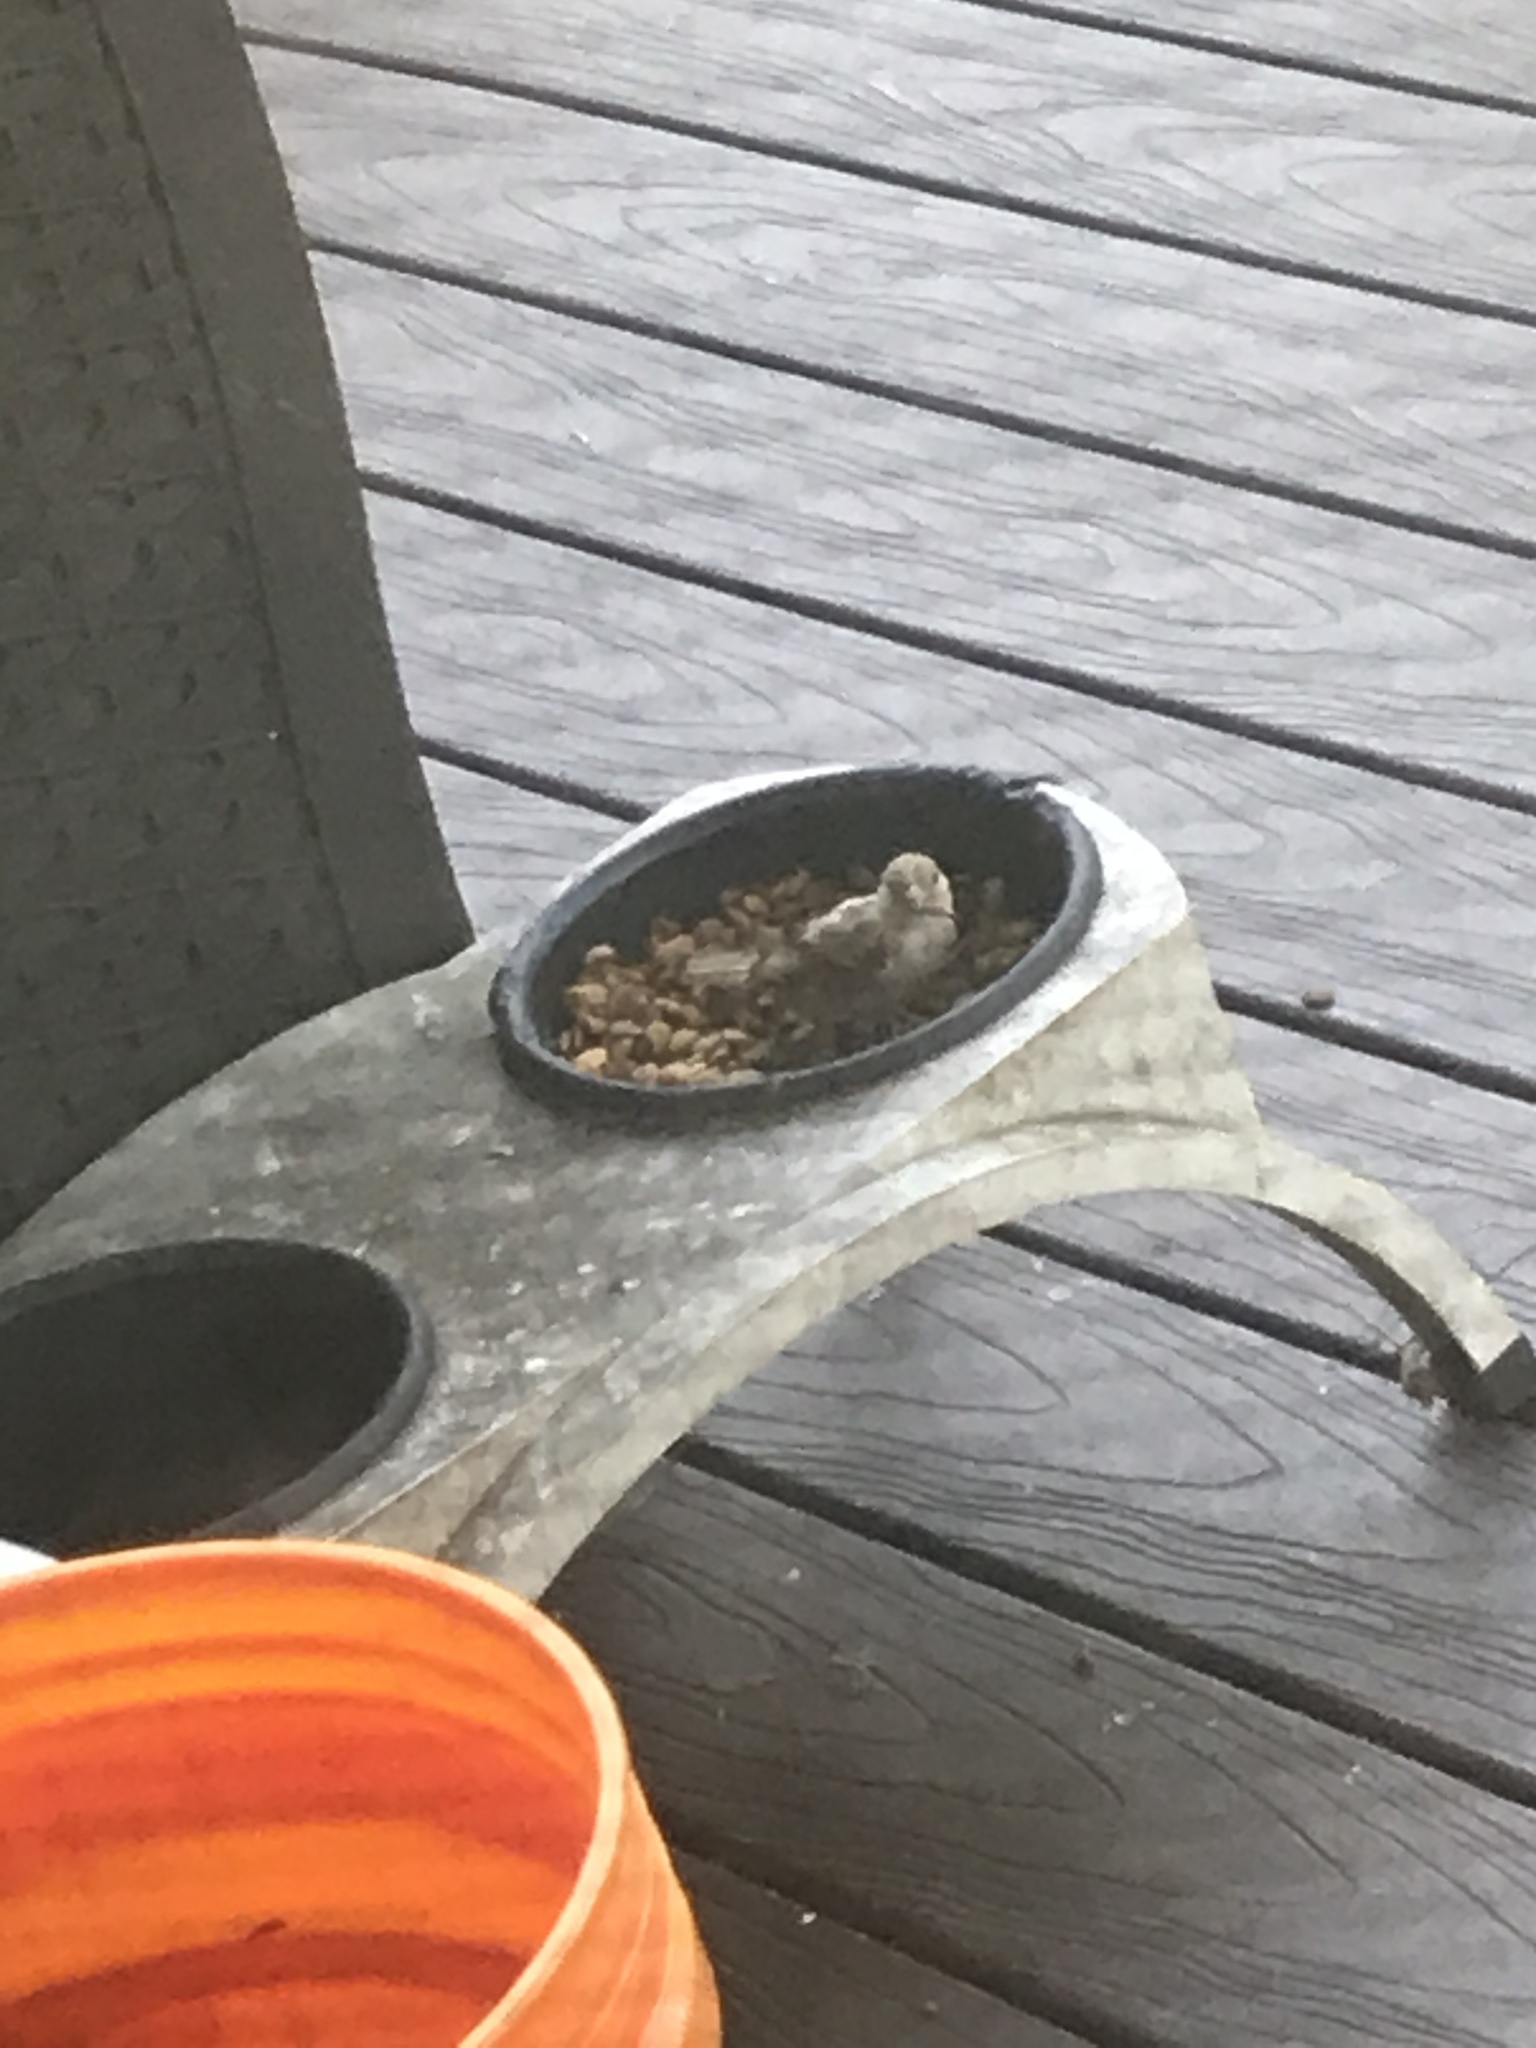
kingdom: Animalia
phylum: Chordata
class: Aves
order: Passeriformes
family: Passeridae
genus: Passer
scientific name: Passer domesticus
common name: House sparrow
